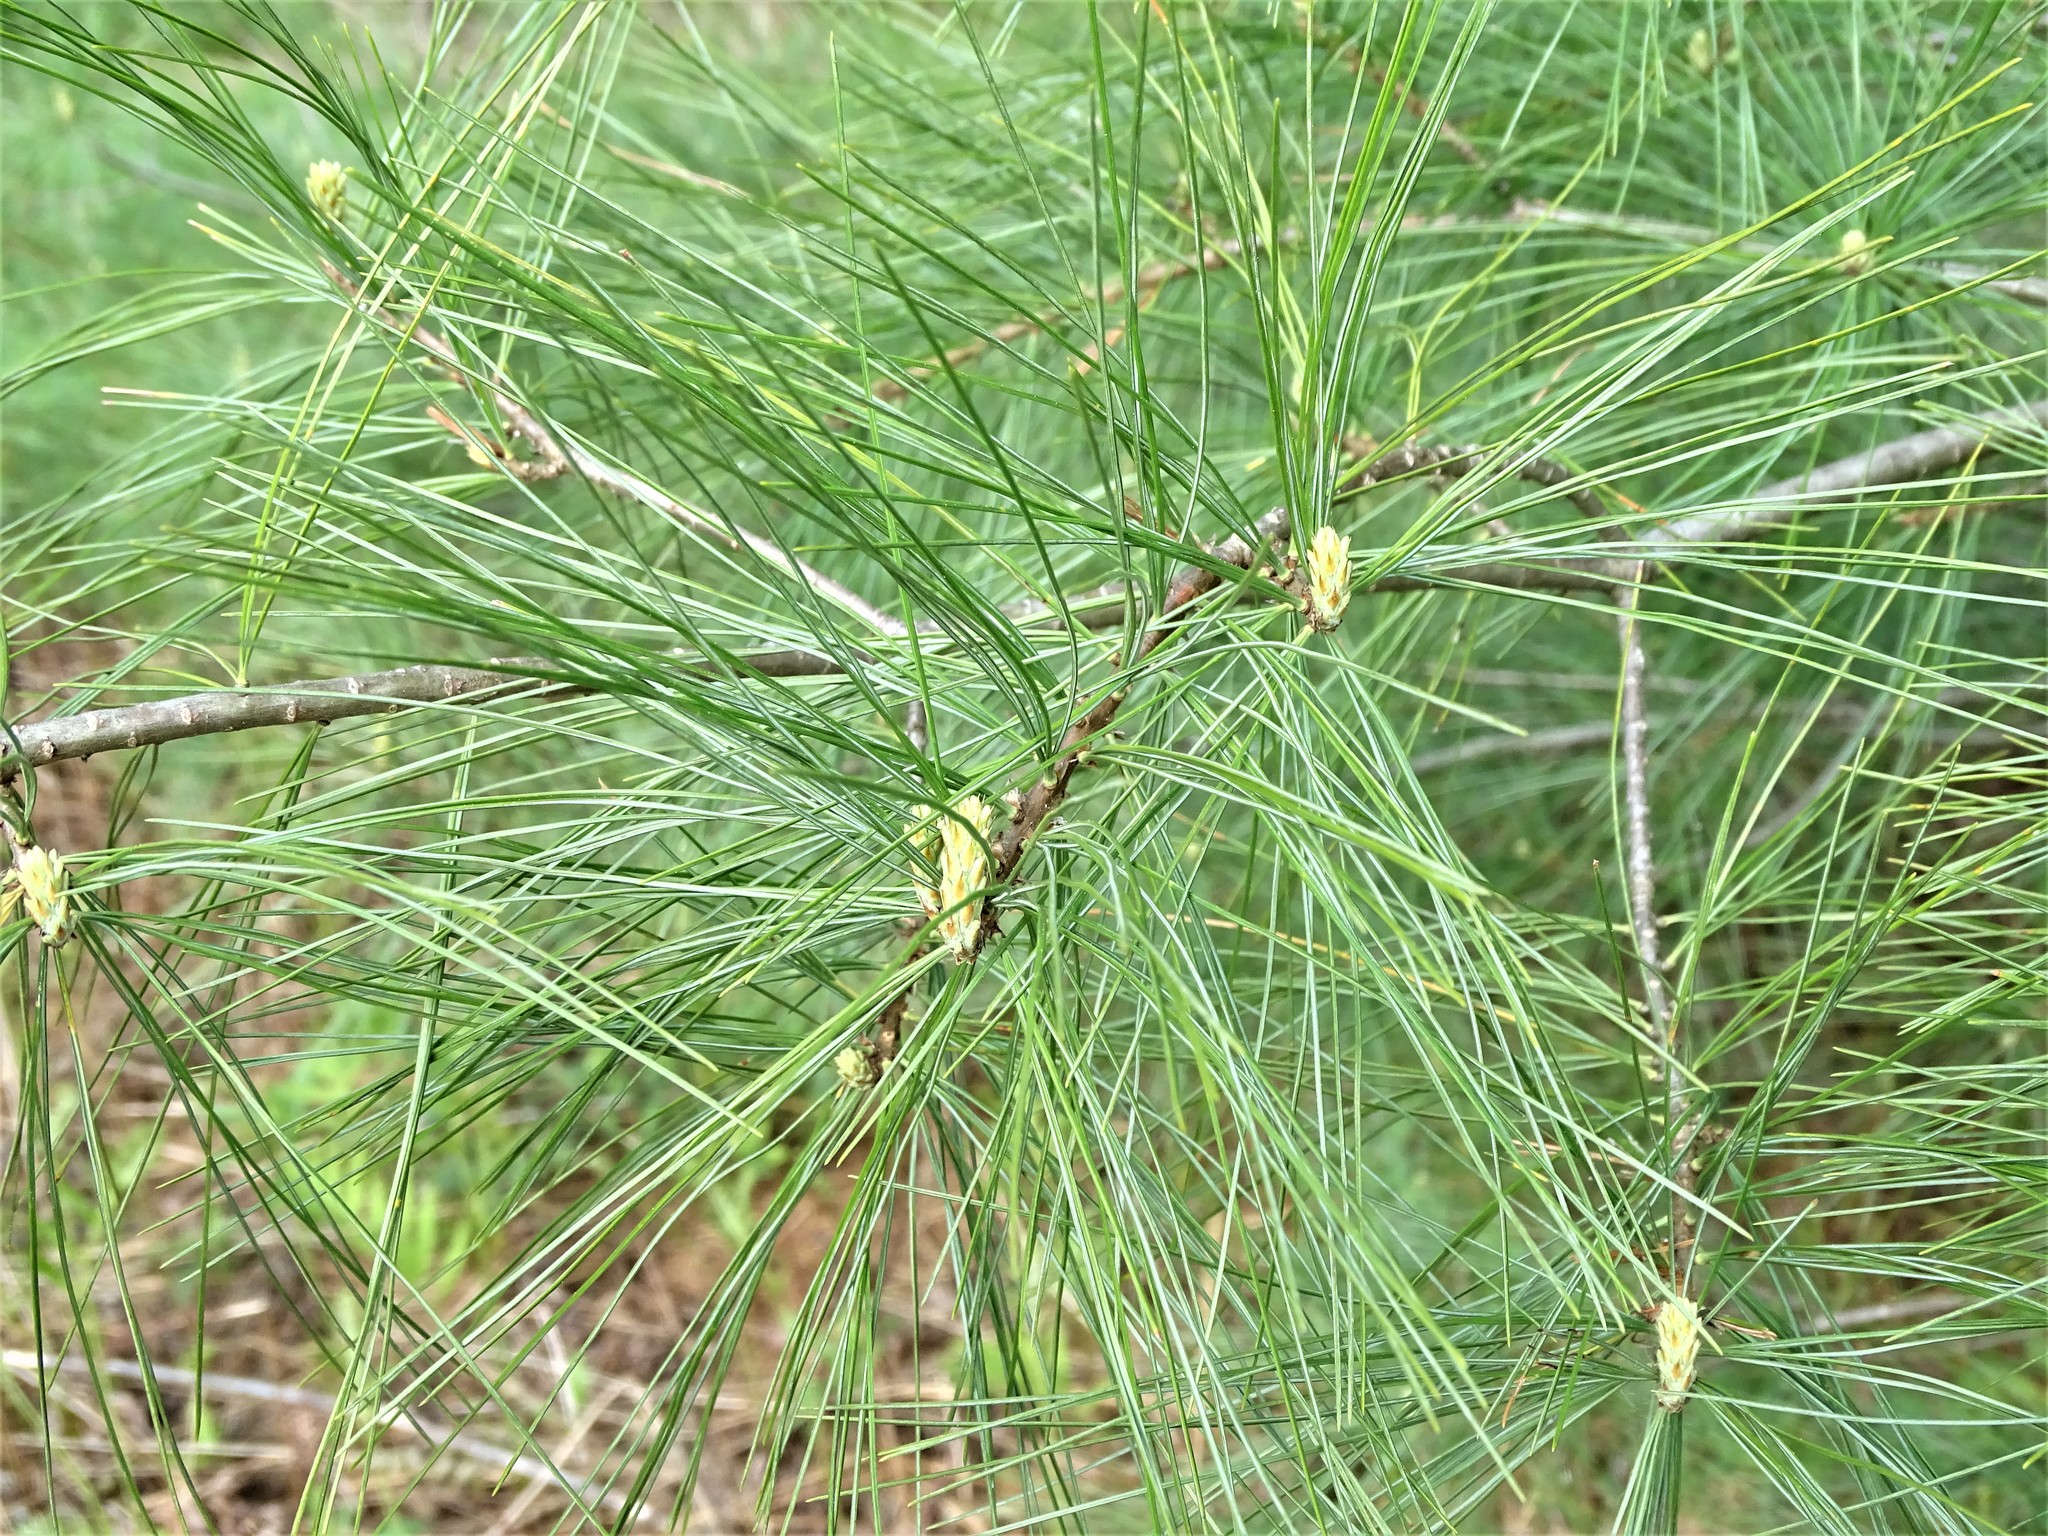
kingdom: Plantae
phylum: Tracheophyta
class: Pinopsida
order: Pinales
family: Pinaceae
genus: Pinus
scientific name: Pinus strobus
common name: Weymouth pine
